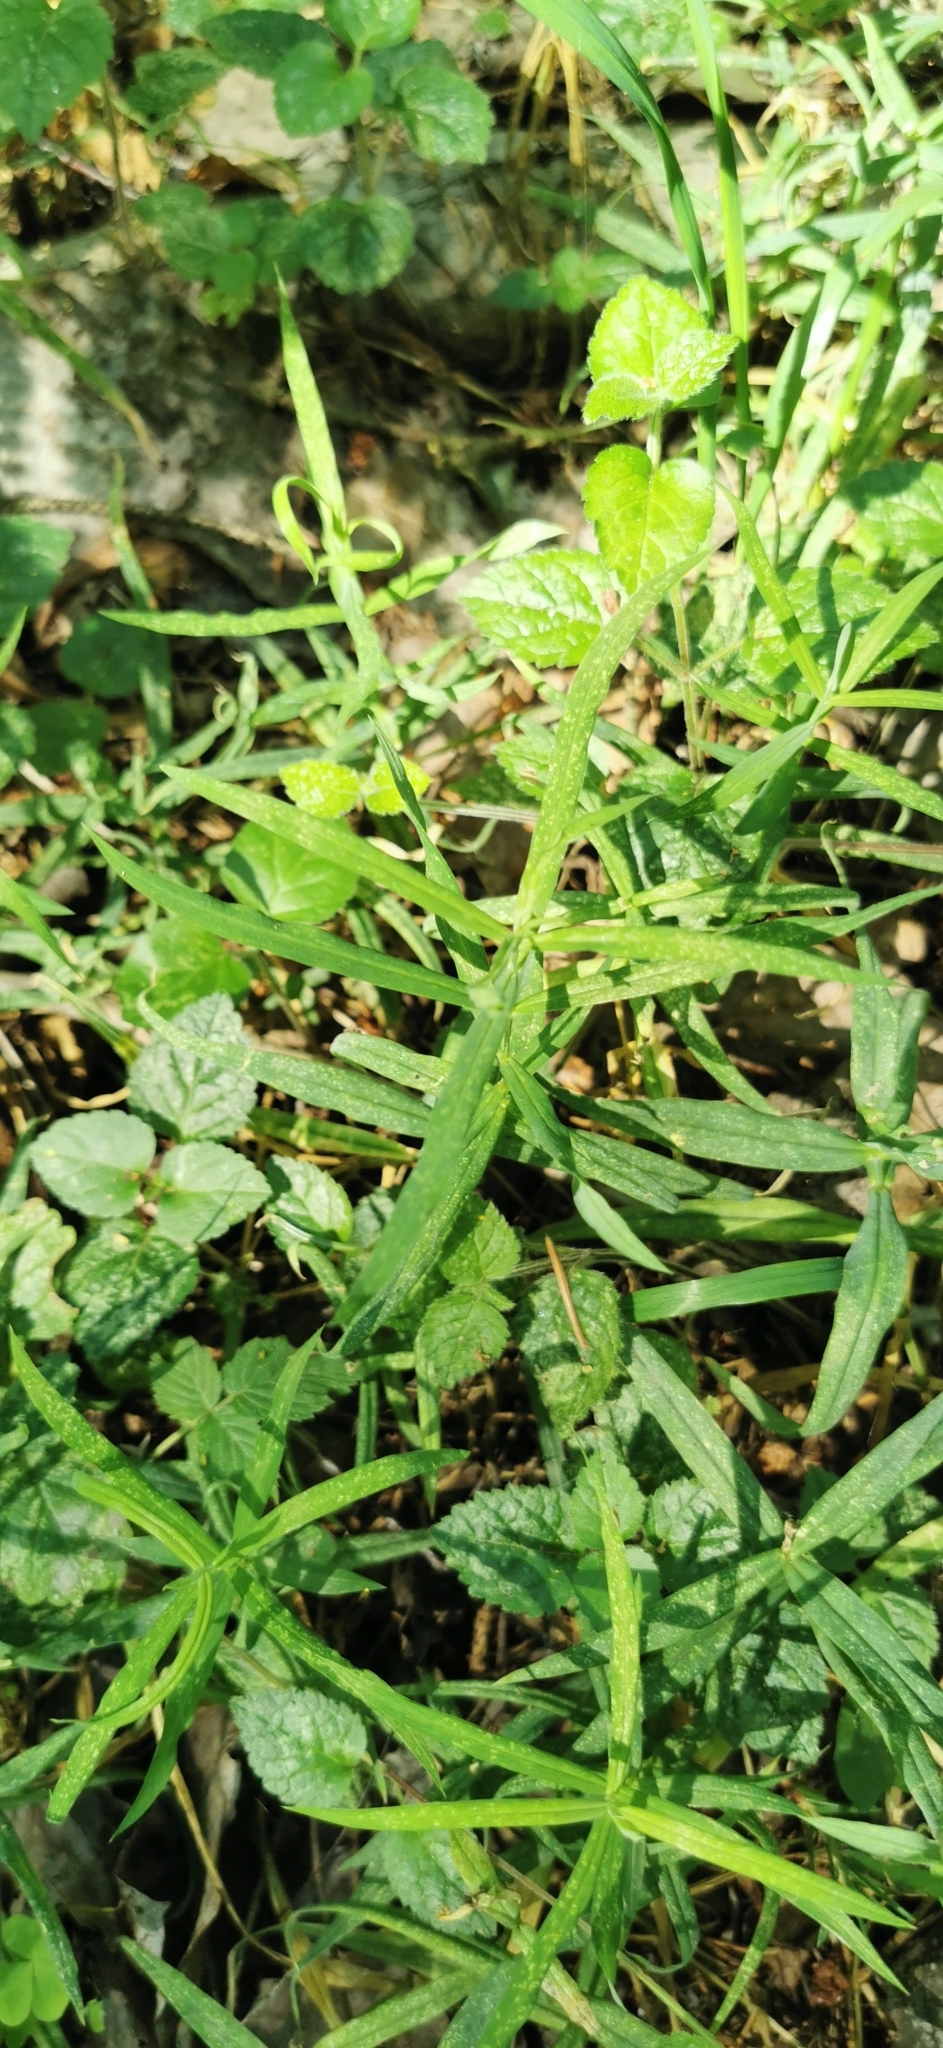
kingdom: Plantae
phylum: Tracheophyta
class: Magnoliopsida
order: Caryophyllales
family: Caryophyllaceae
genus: Rabelera
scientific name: Rabelera holostea
